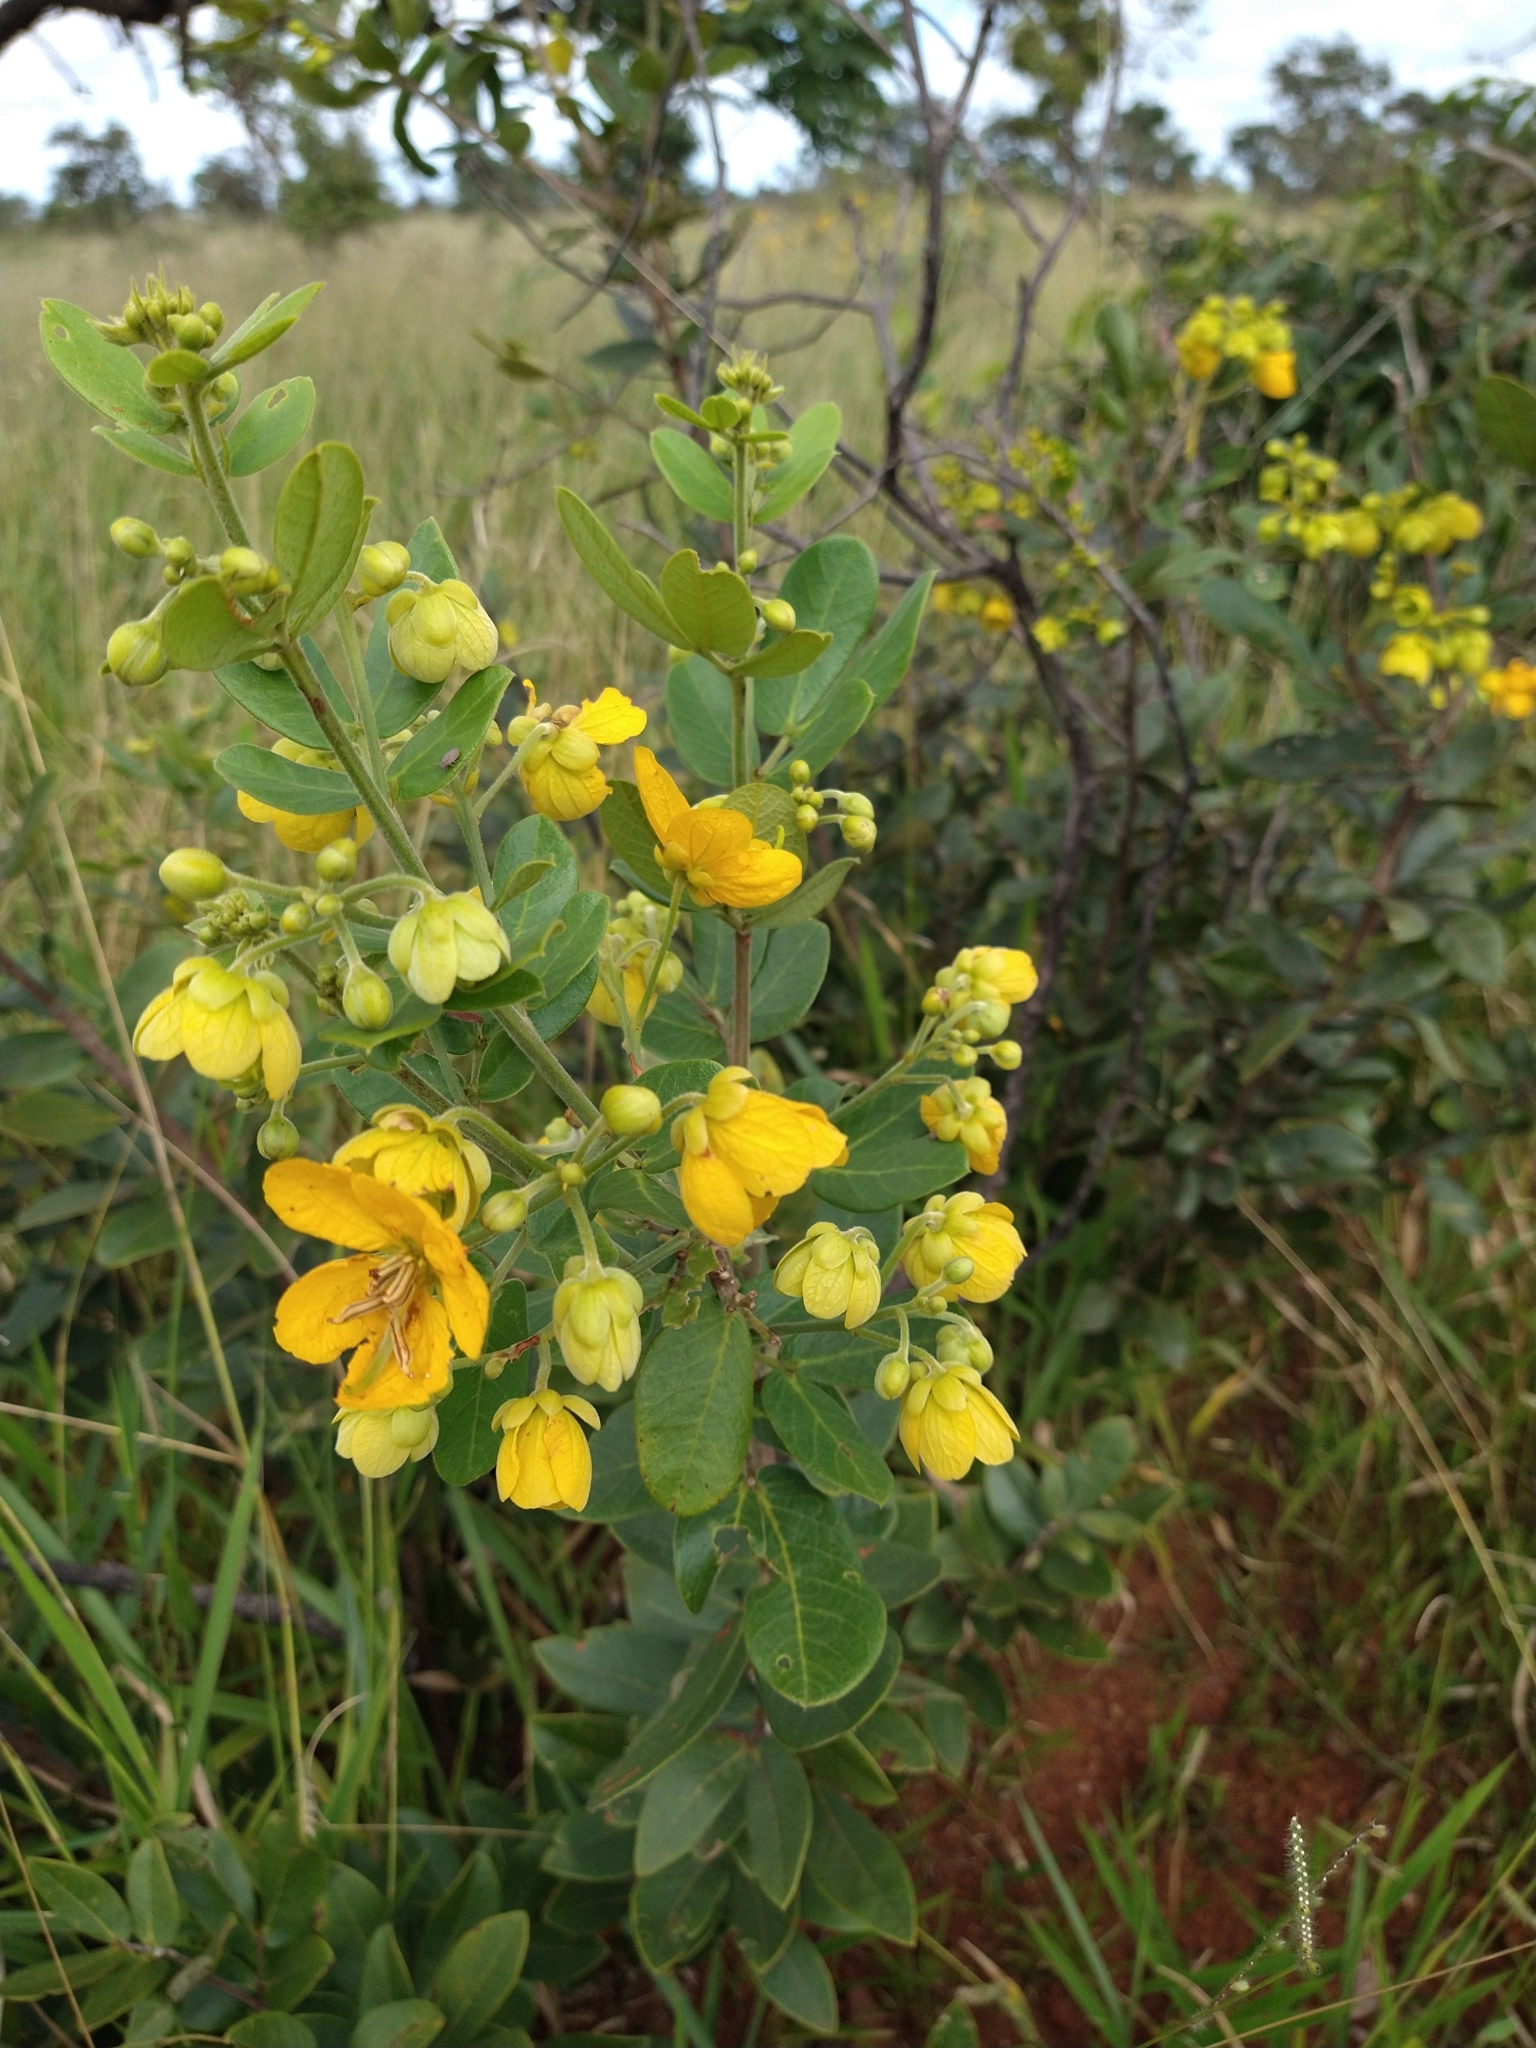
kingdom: Plantae
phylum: Tracheophyta
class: Magnoliopsida
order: Fabales
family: Fabaceae
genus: Senna
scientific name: Senna rugosa
